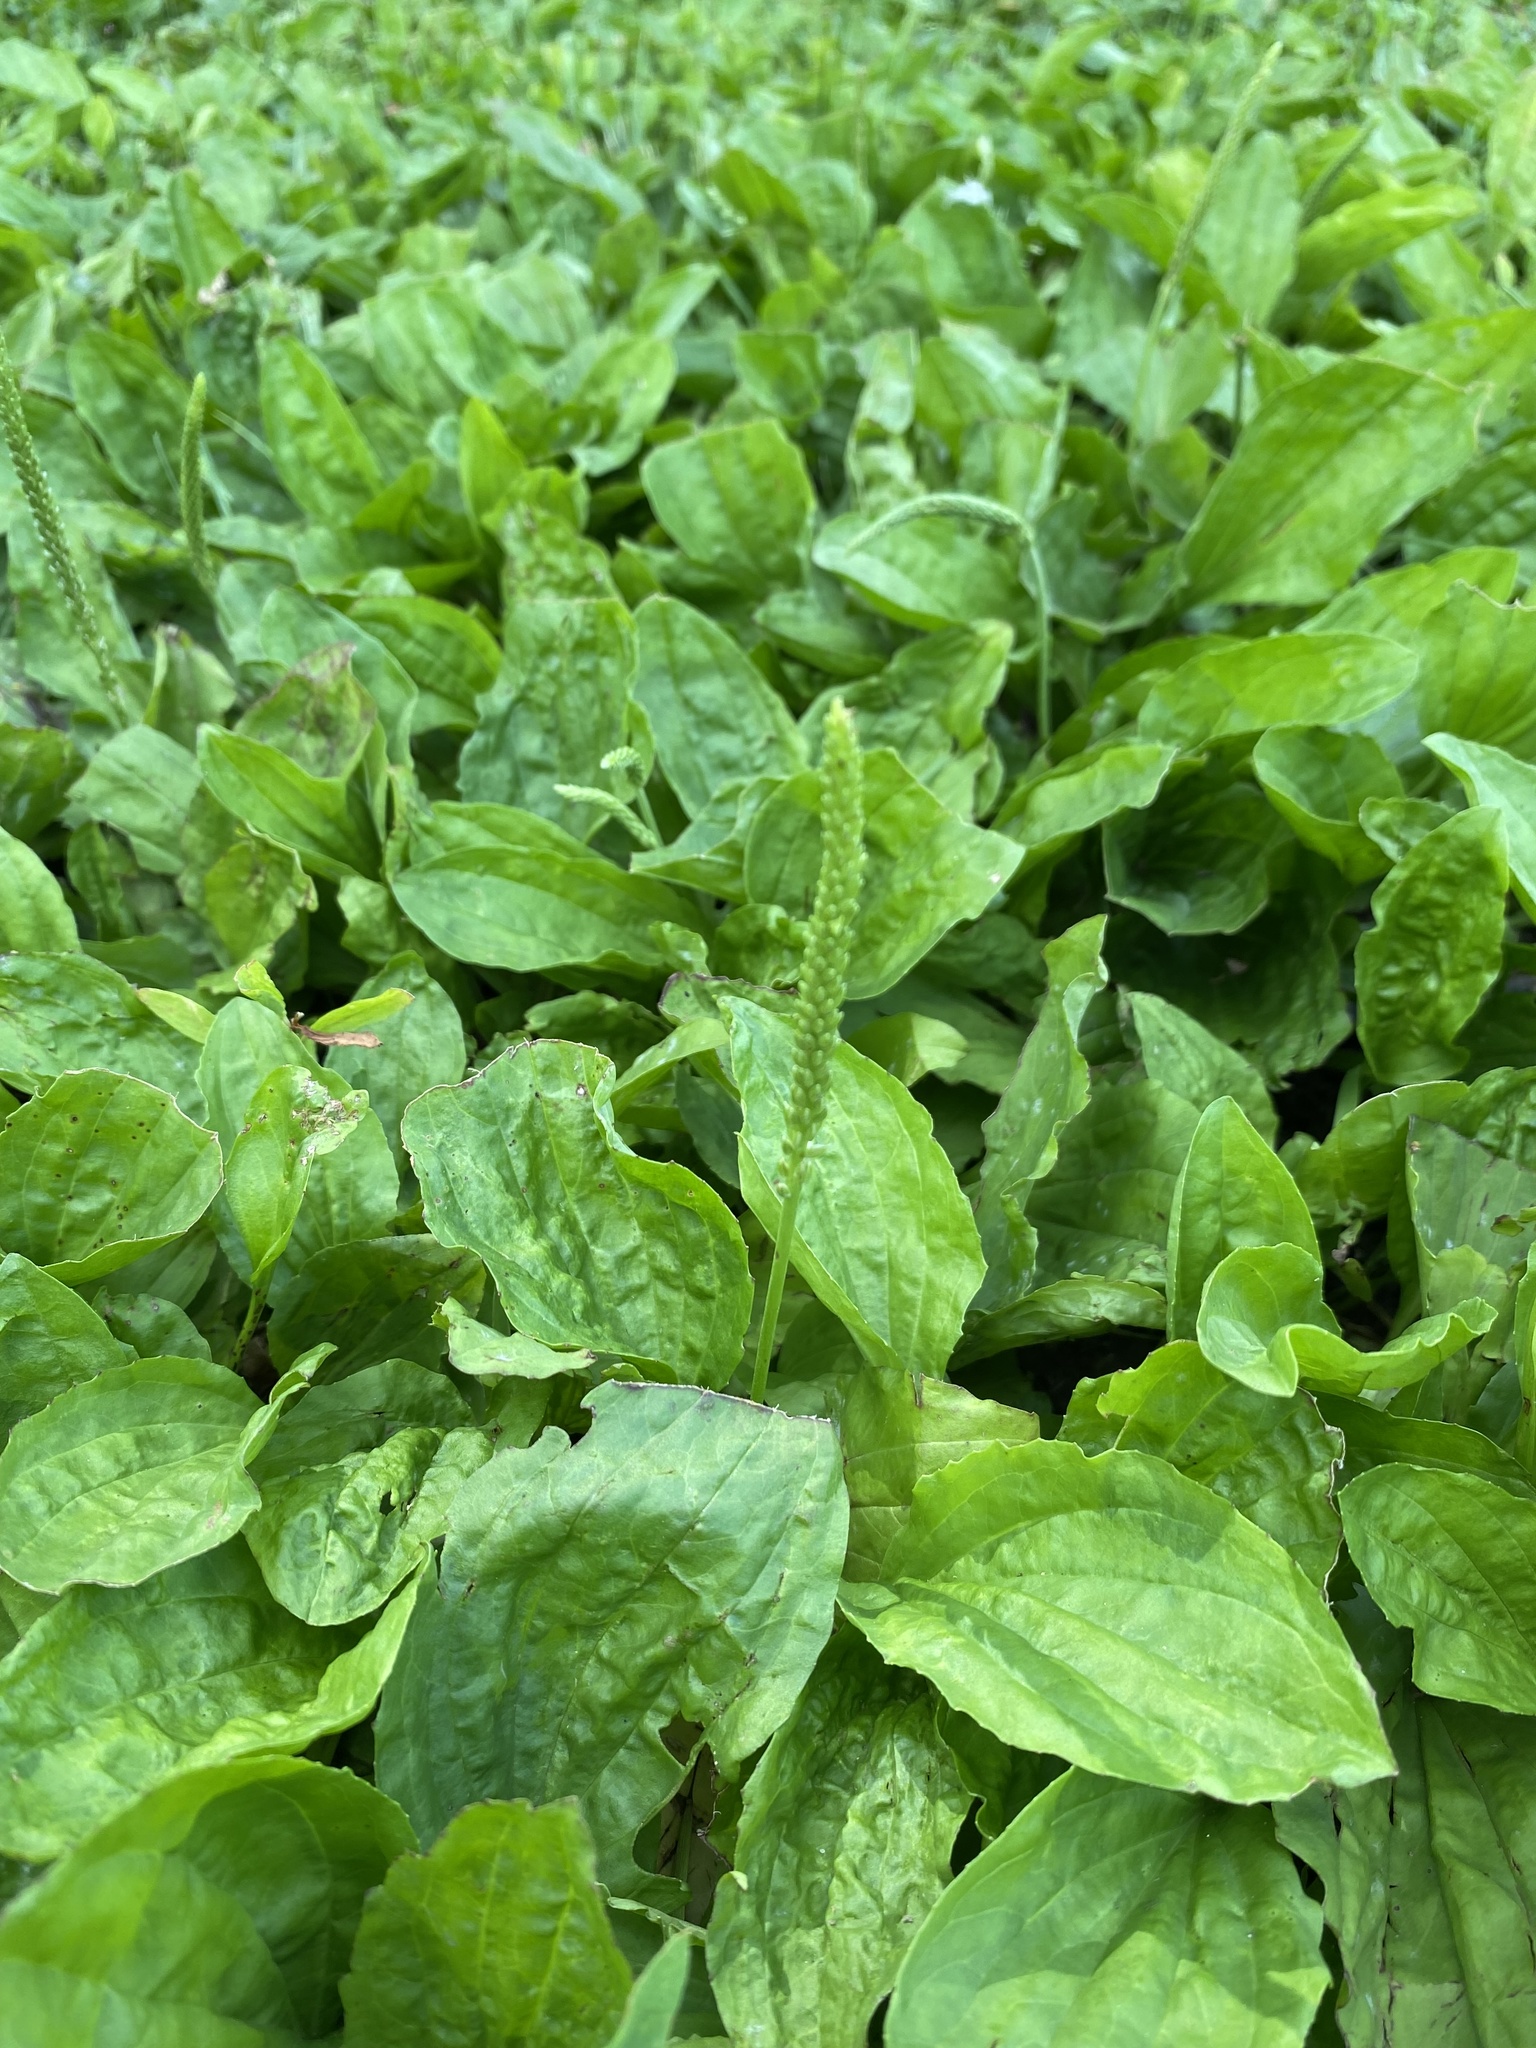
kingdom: Plantae
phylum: Tracheophyta
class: Magnoliopsida
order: Lamiales
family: Plantaginaceae
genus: Plantago
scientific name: Plantago major
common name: Common plantain
